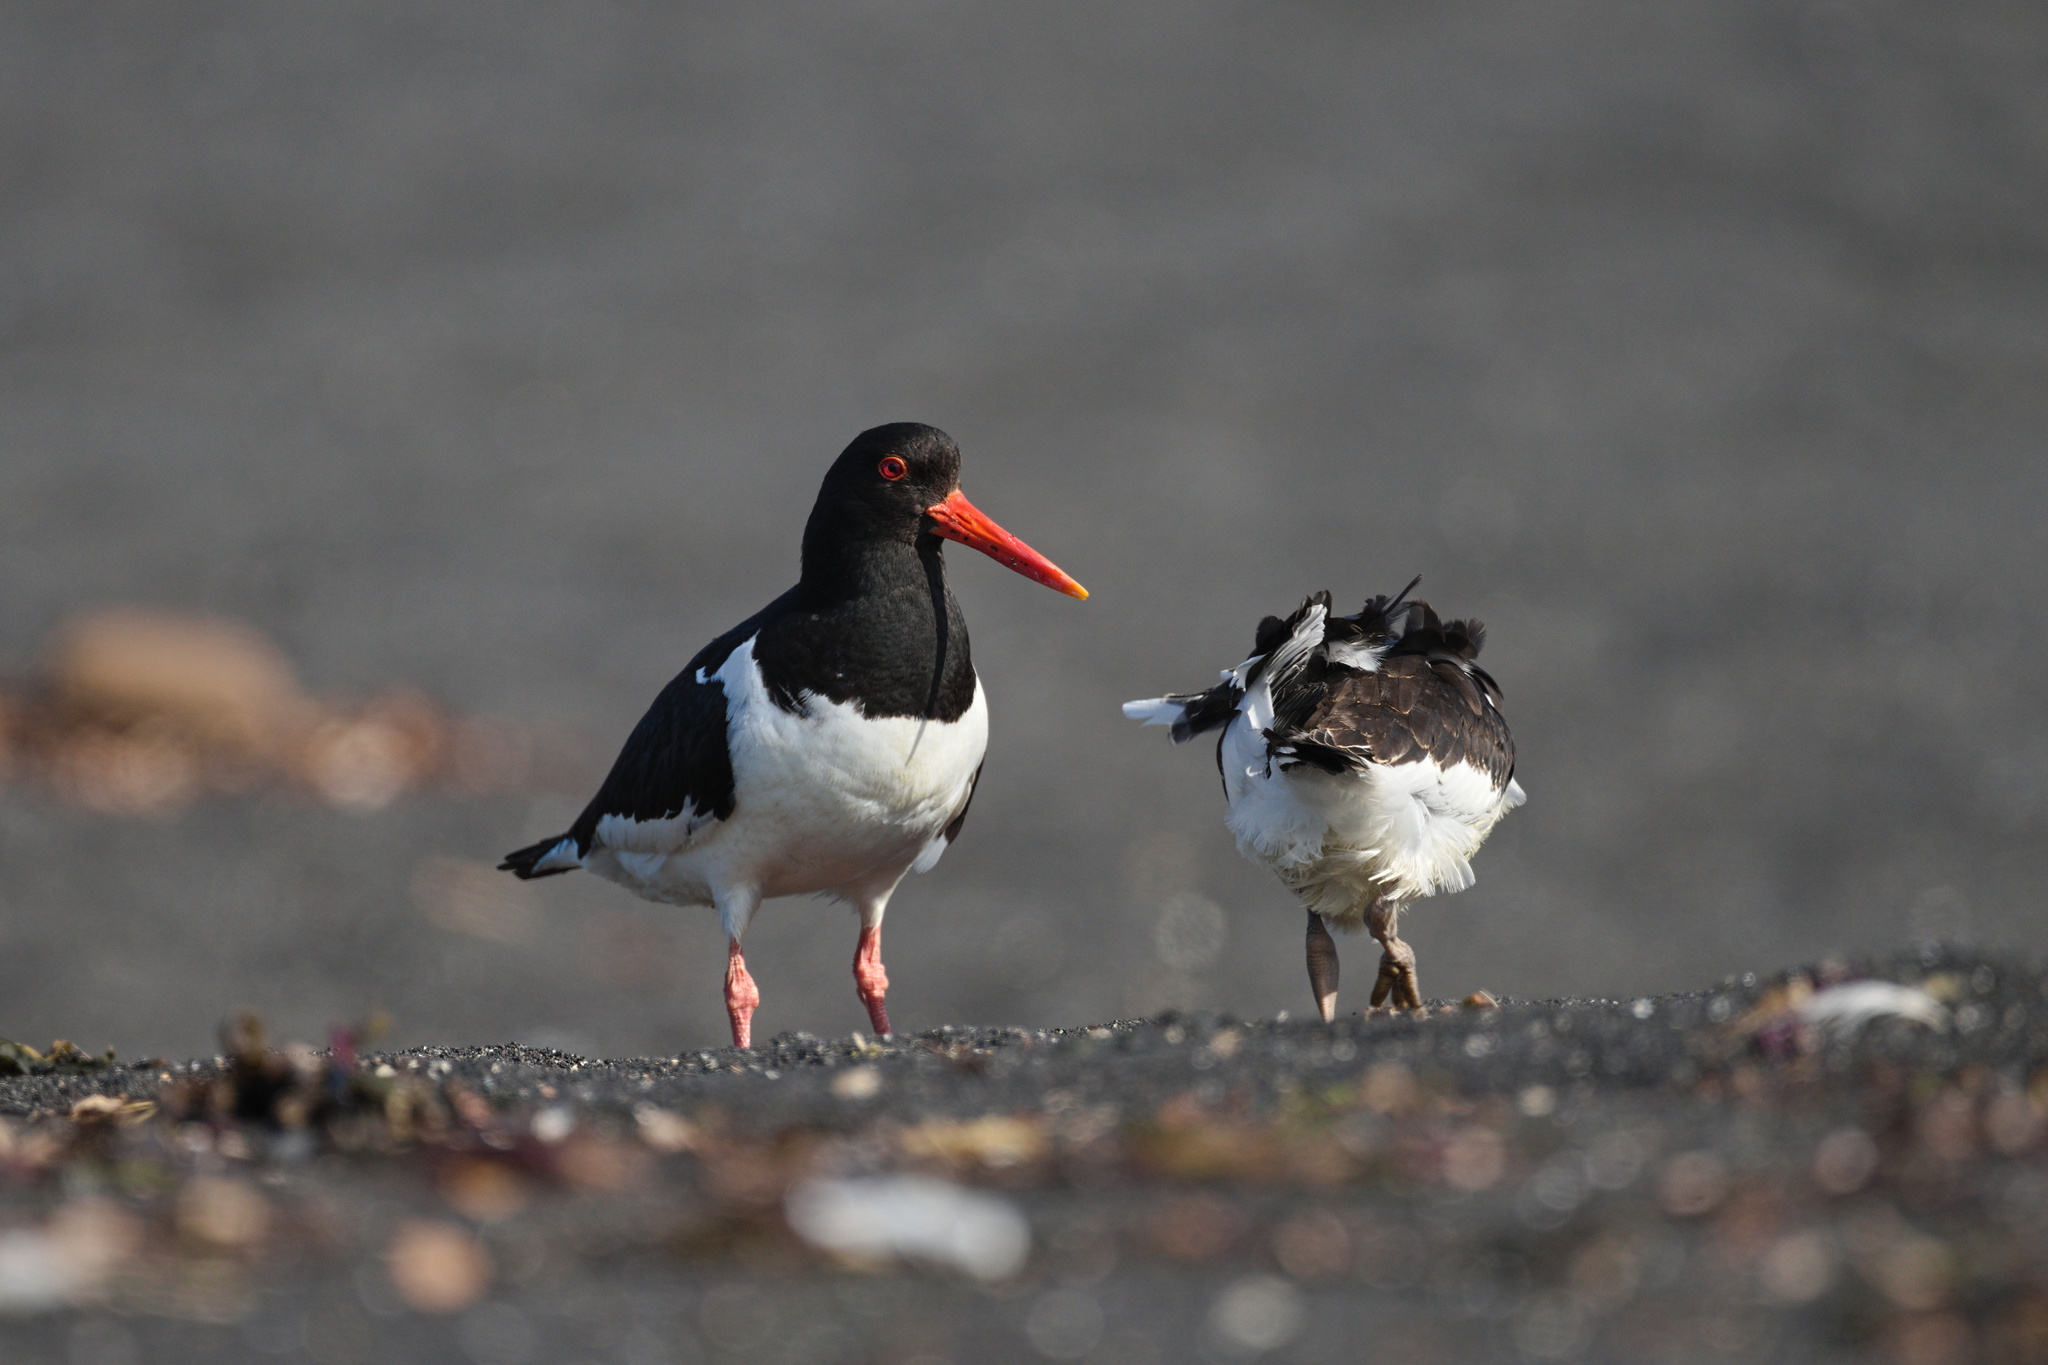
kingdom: Animalia
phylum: Chordata
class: Aves
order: Charadriiformes
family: Haematopodidae
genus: Haematopus
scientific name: Haematopus ostralegus
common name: Eurasian oystercatcher
